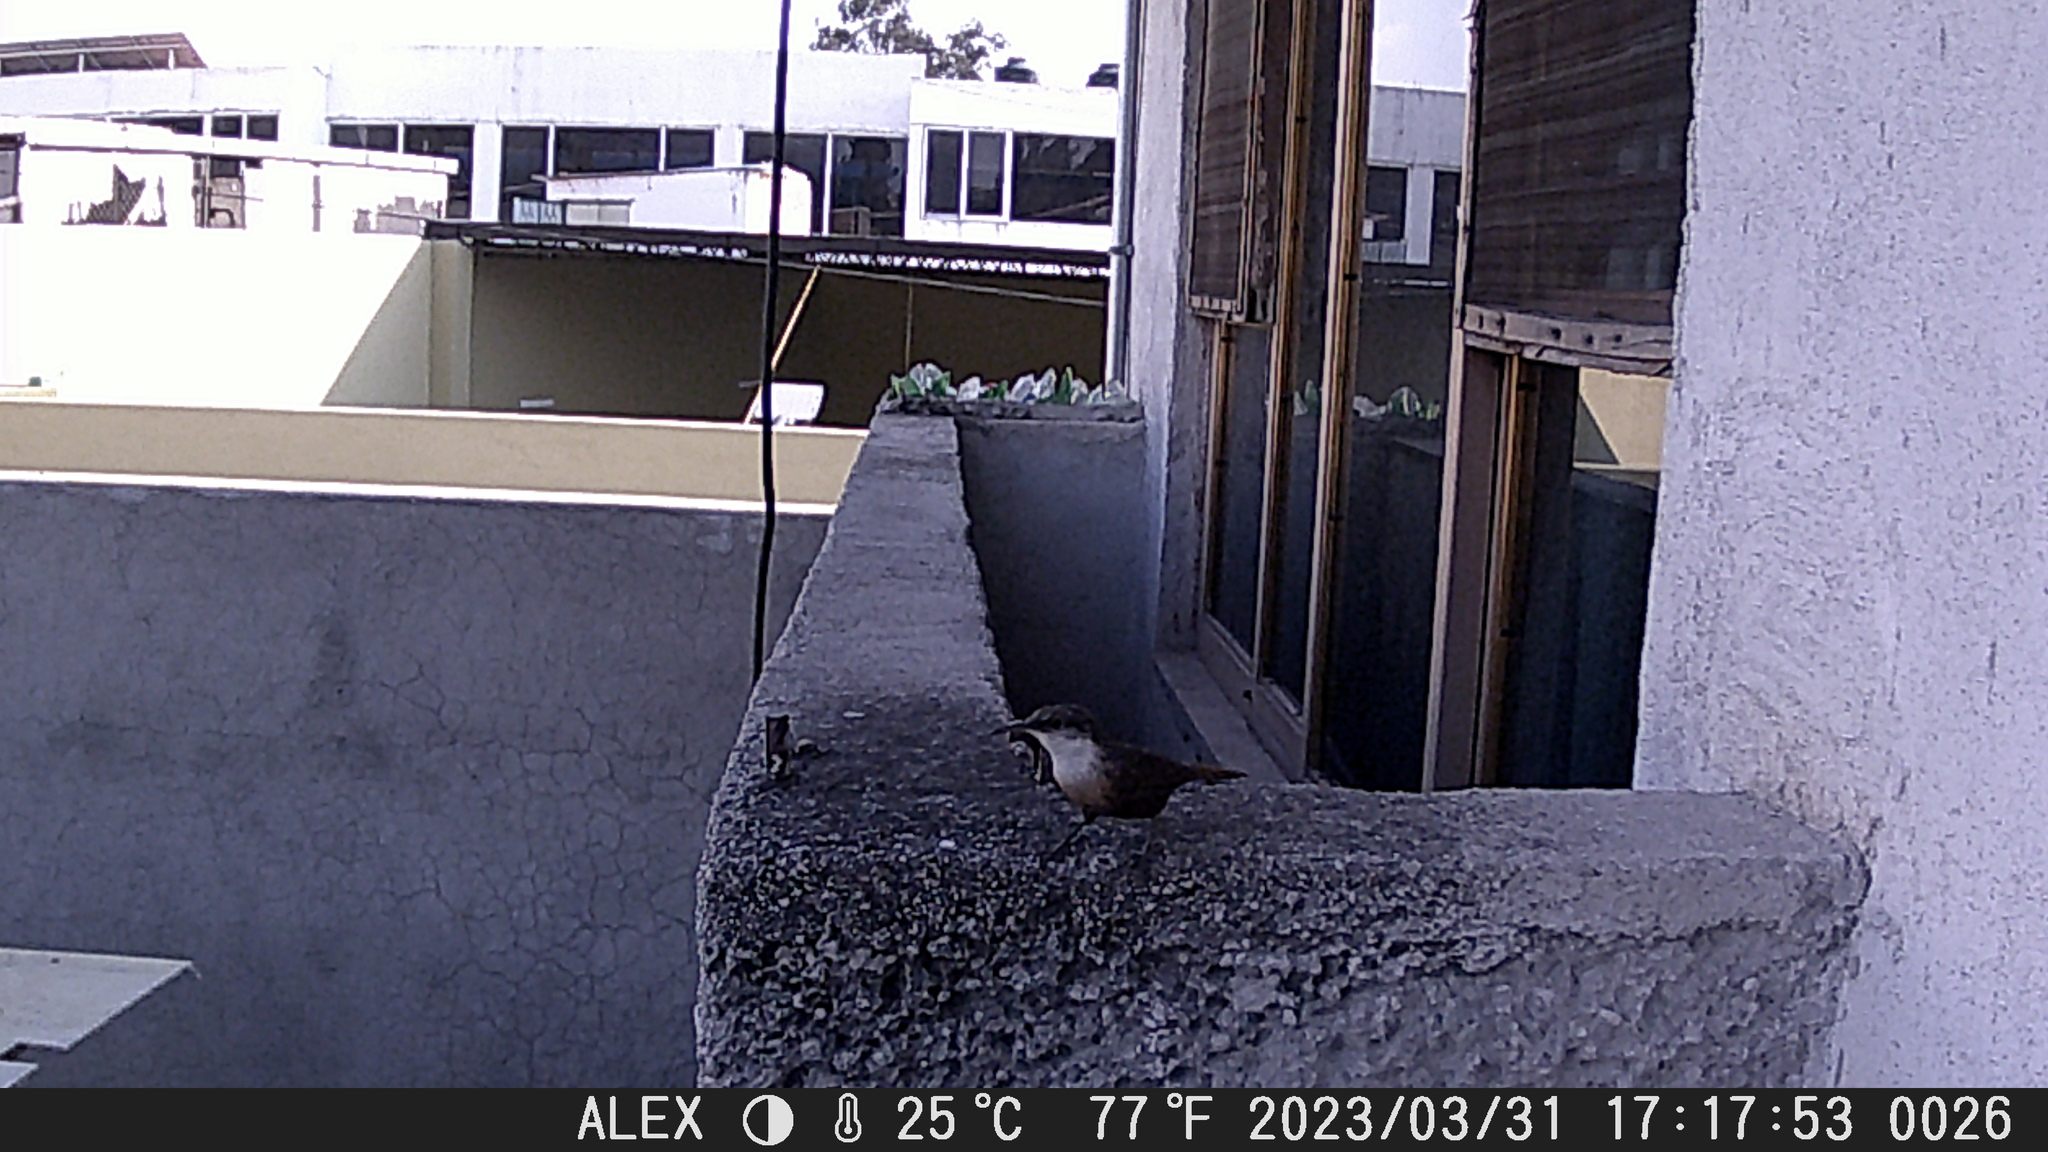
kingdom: Animalia
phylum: Chordata
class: Aves
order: Passeriformes
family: Troglodytidae
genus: Catherpes
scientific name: Catherpes mexicanus
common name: Canyon wren
